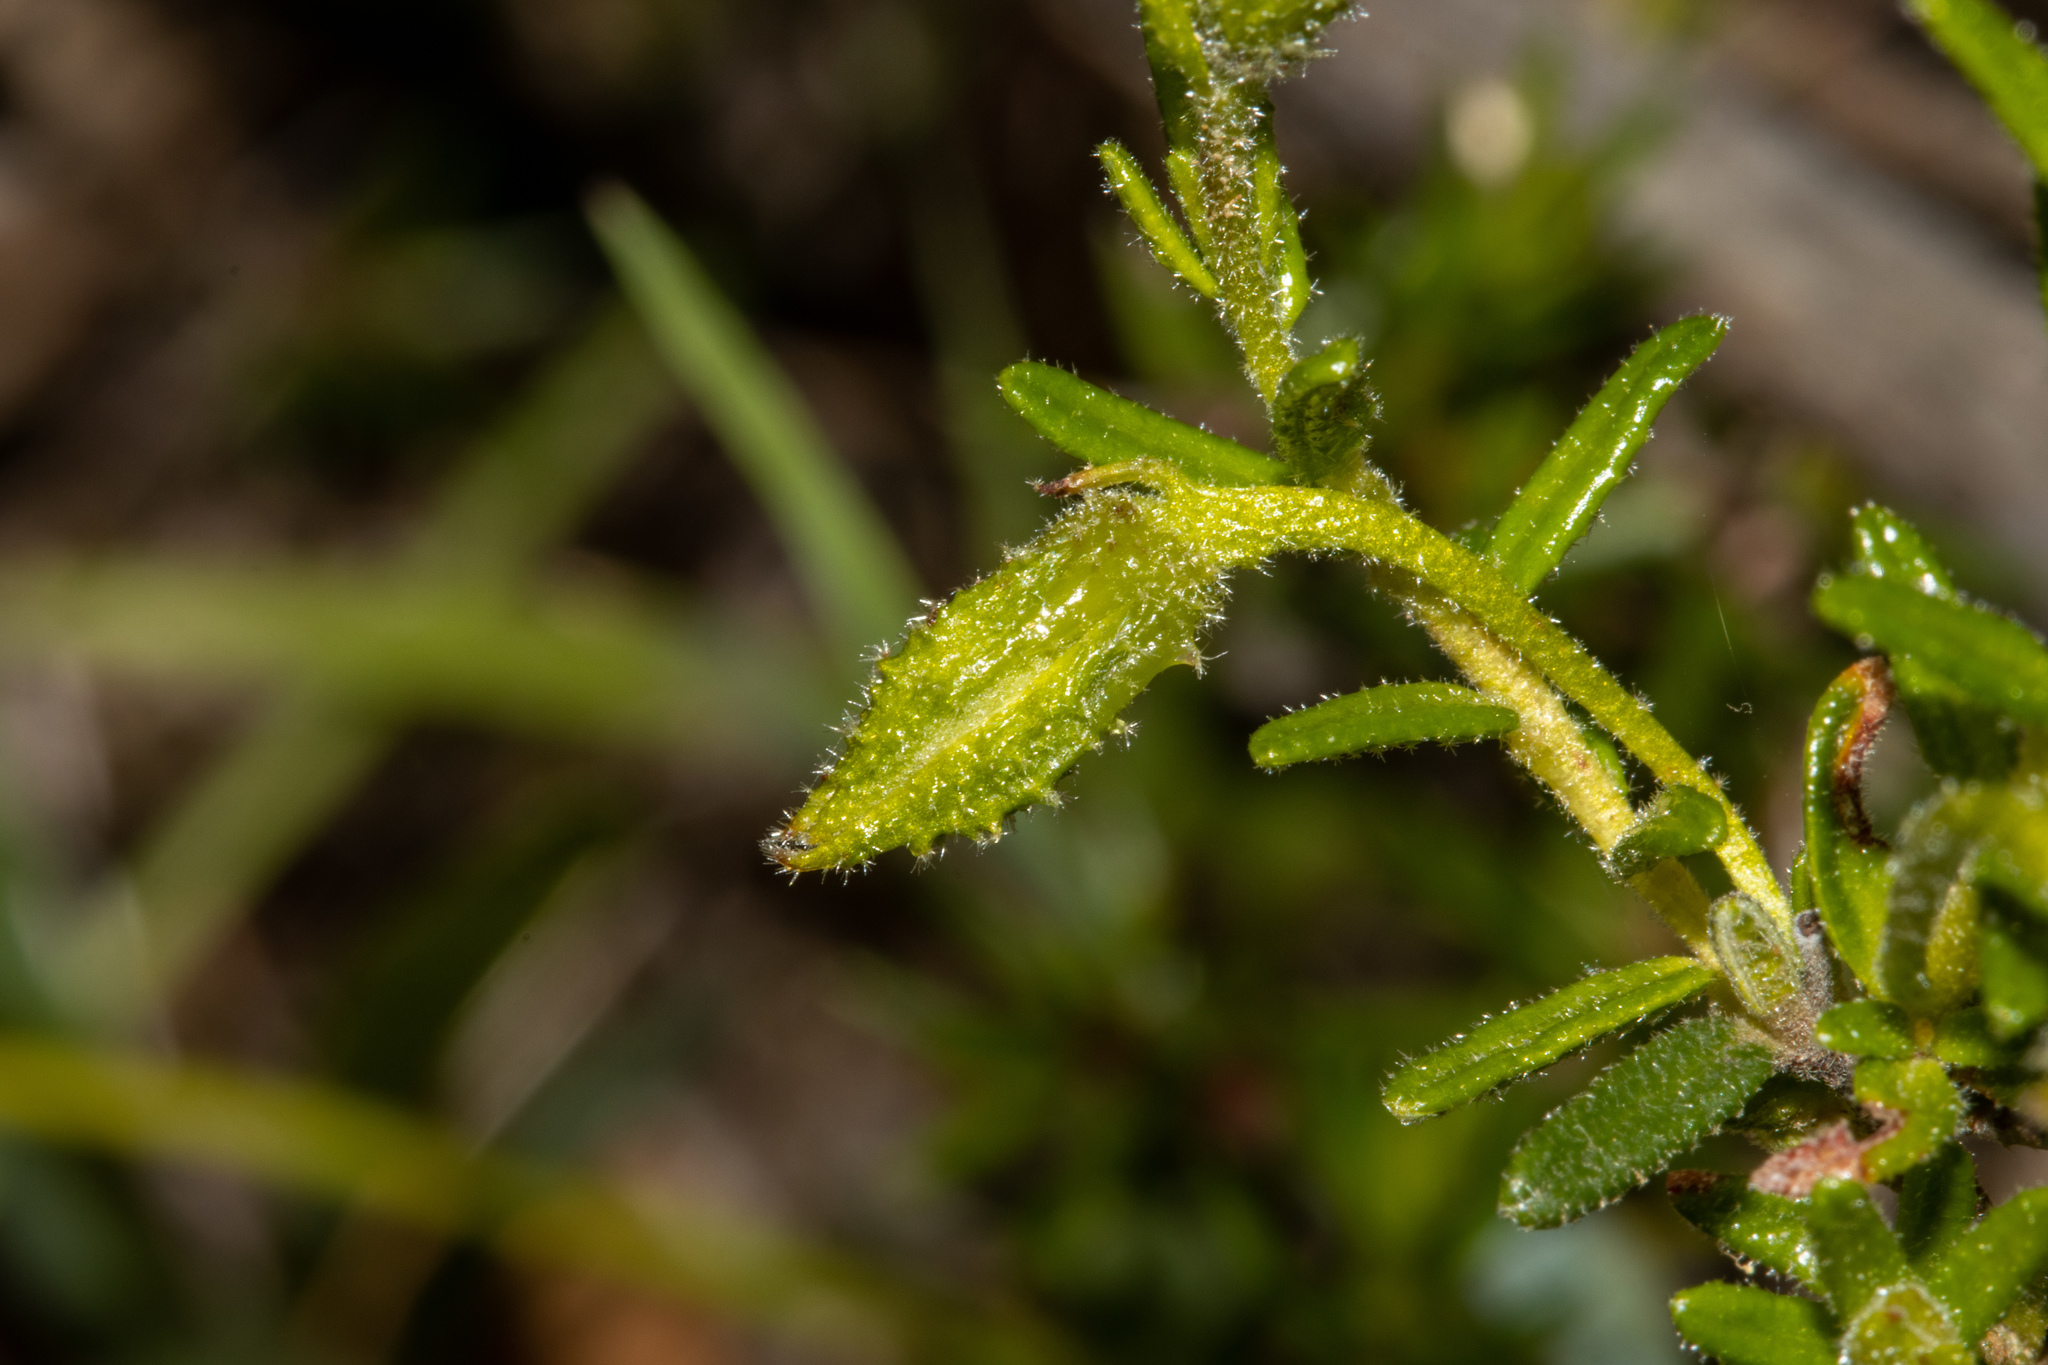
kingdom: Plantae
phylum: Tracheophyta
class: Magnoliopsida
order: Dilleniales
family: Dilleniaceae
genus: Hibbertia
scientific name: Hibbertia glebosa
